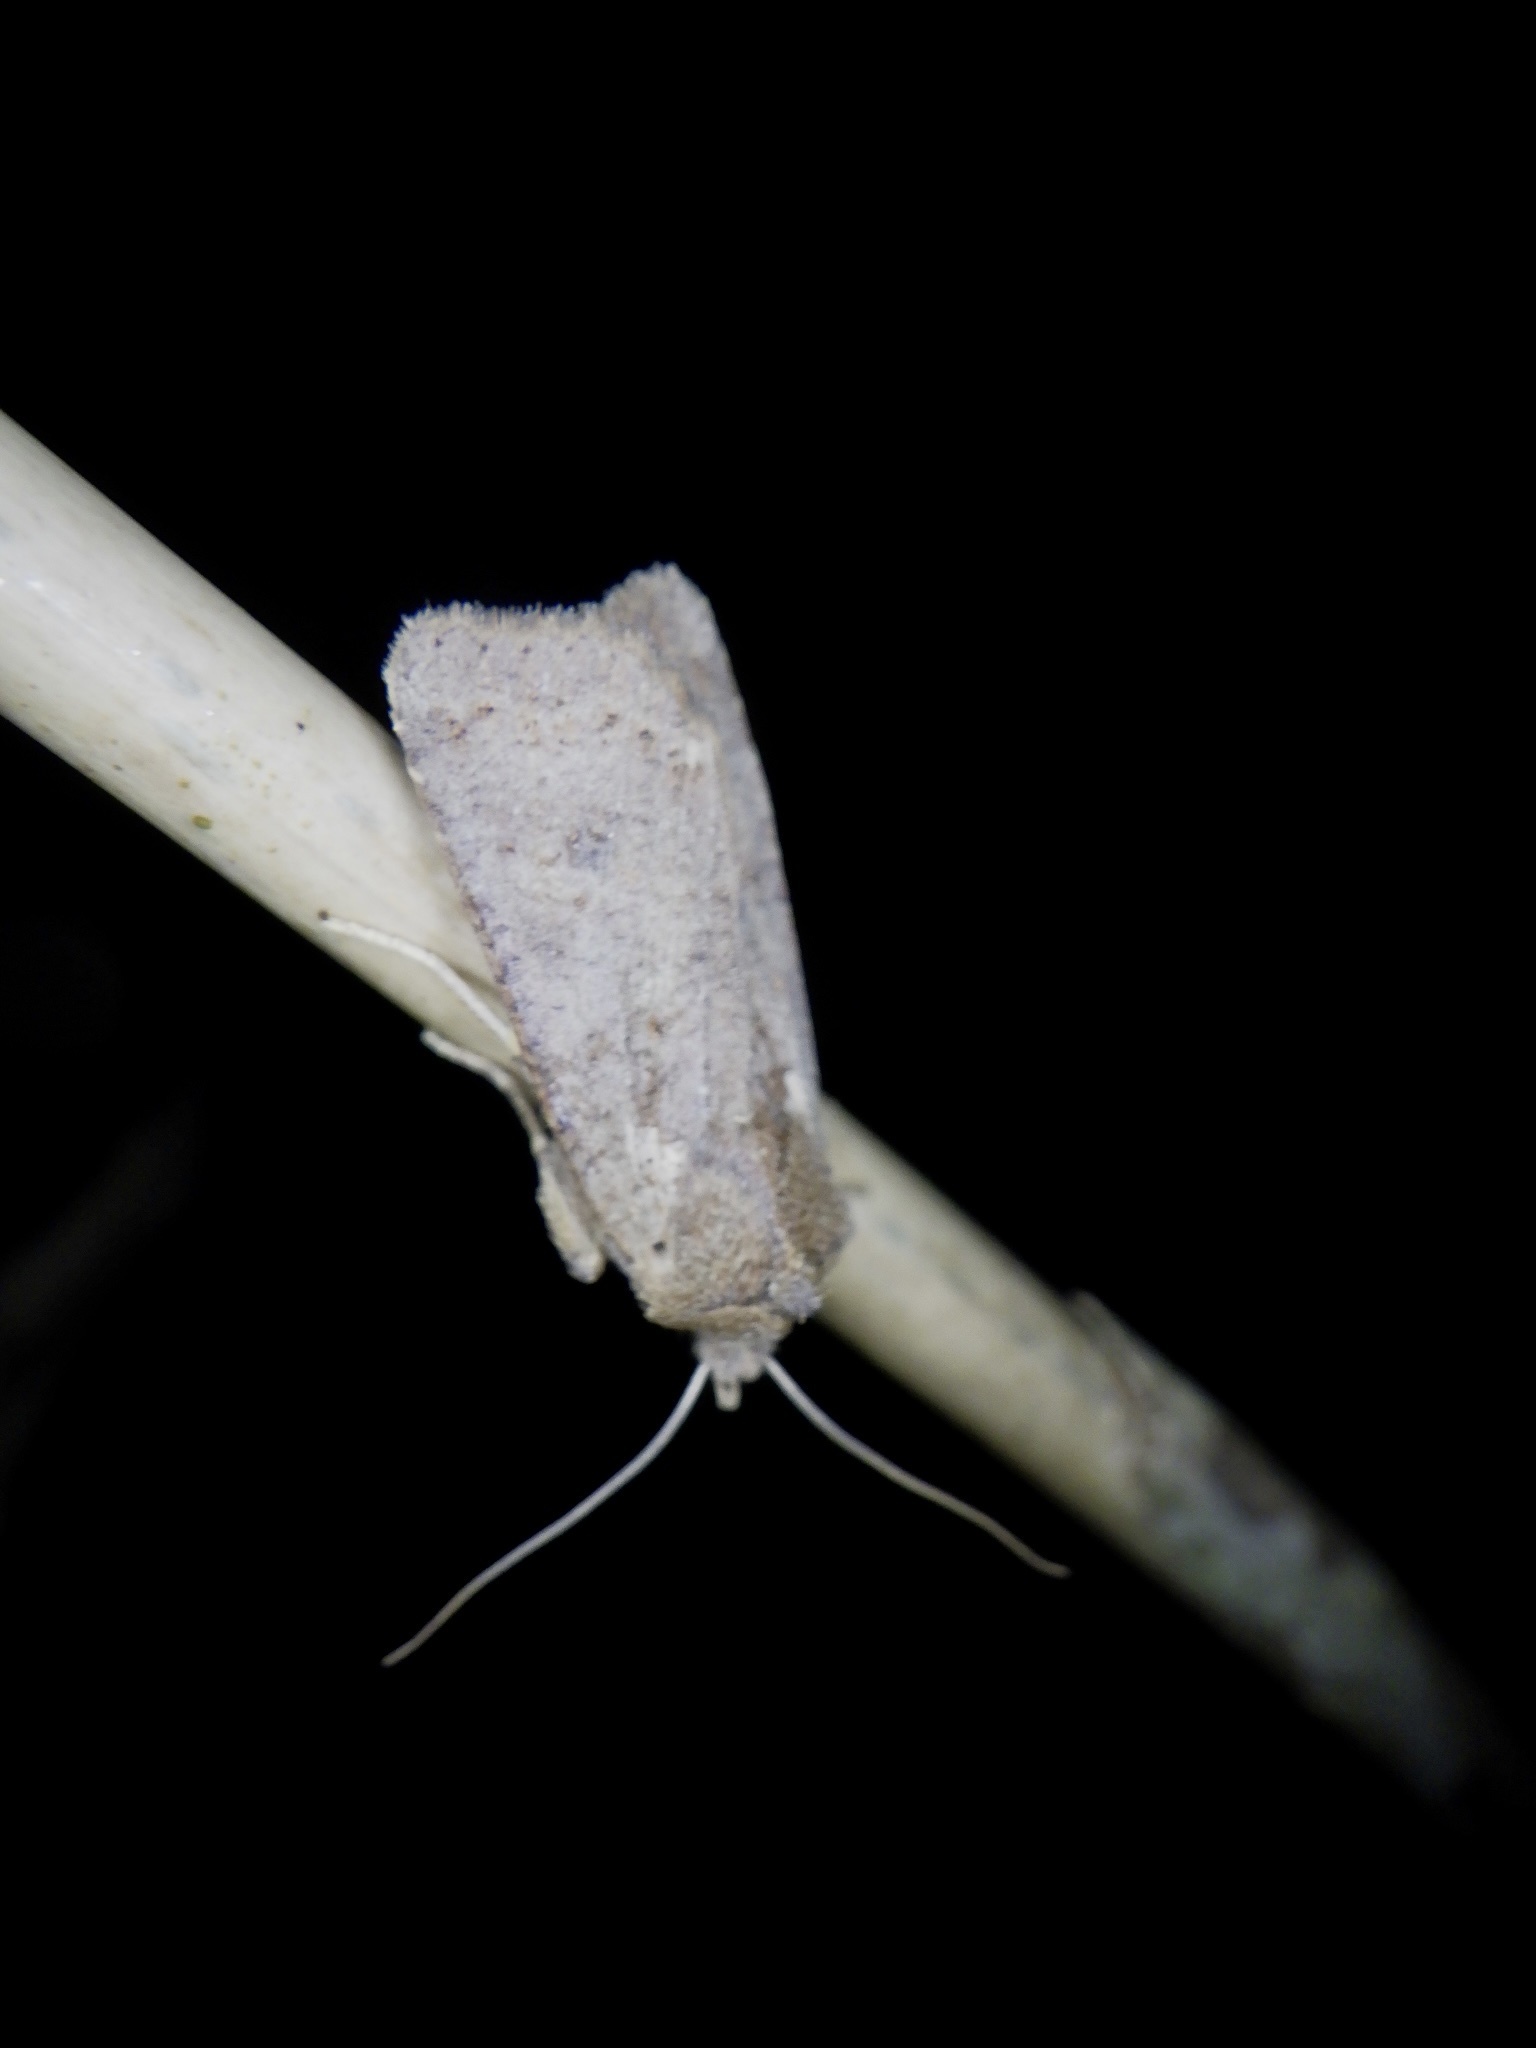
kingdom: Animalia
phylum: Arthropoda
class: Insecta
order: Lepidoptera
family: Noctuidae
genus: Rhynchaglaea
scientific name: Rhynchaglaea fuscipennis
